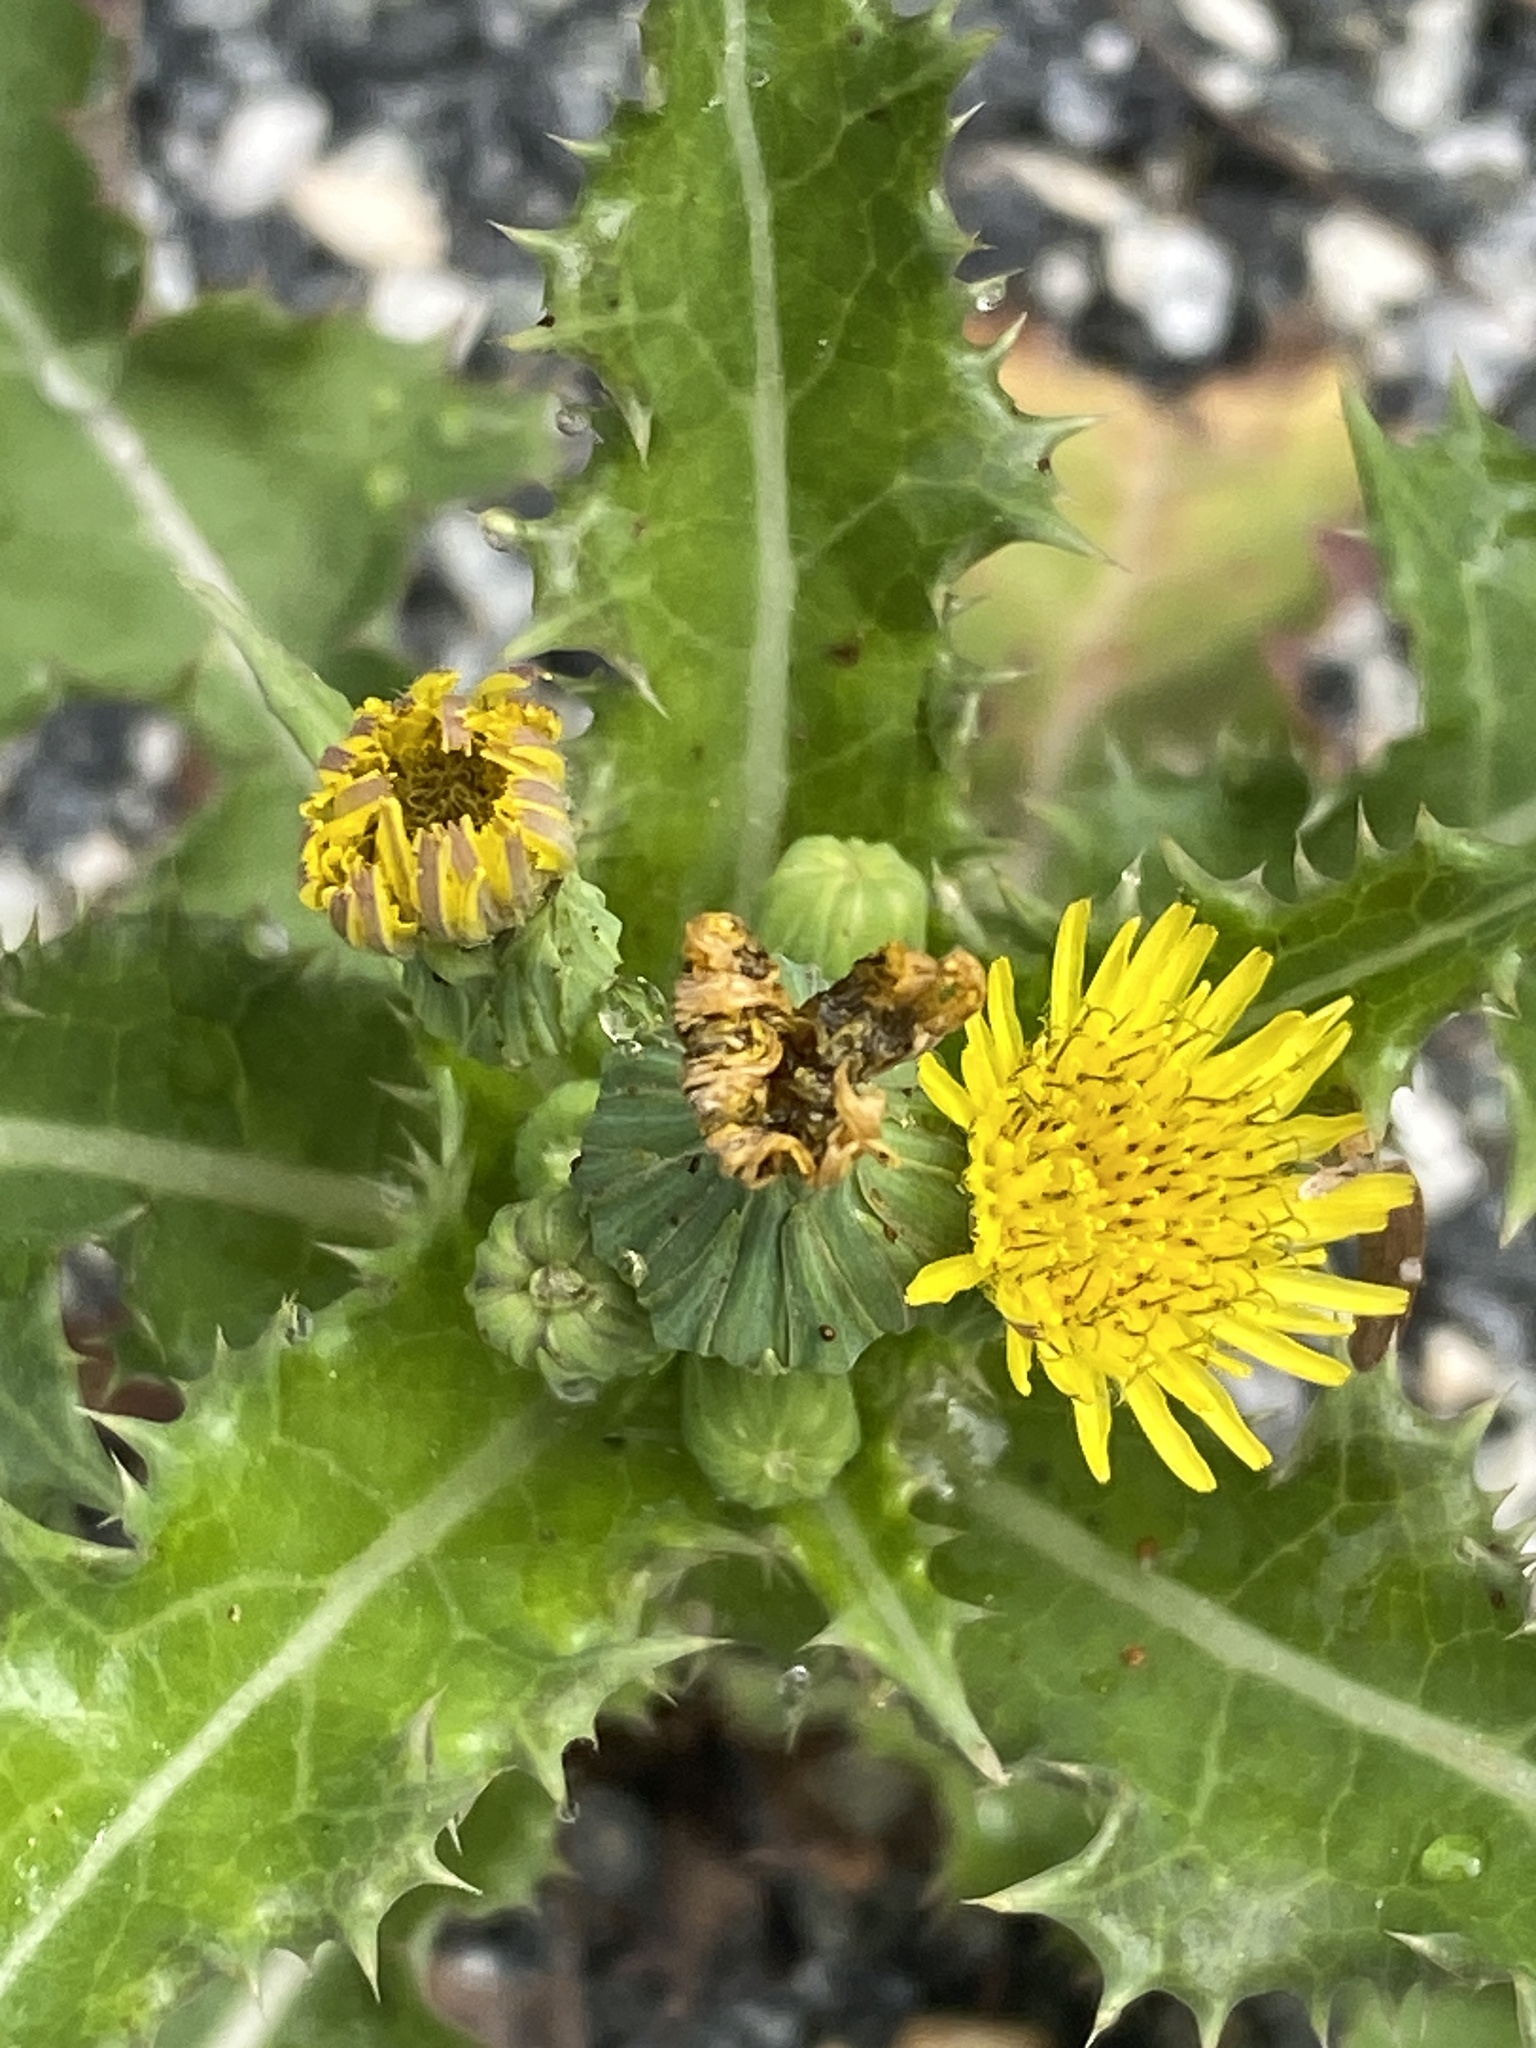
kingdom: Plantae
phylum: Tracheophyta
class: Magnoliopsida
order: Asterales
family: Asteraceae
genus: Sonchus
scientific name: Sonchus asper
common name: Prickly sow-thistle
